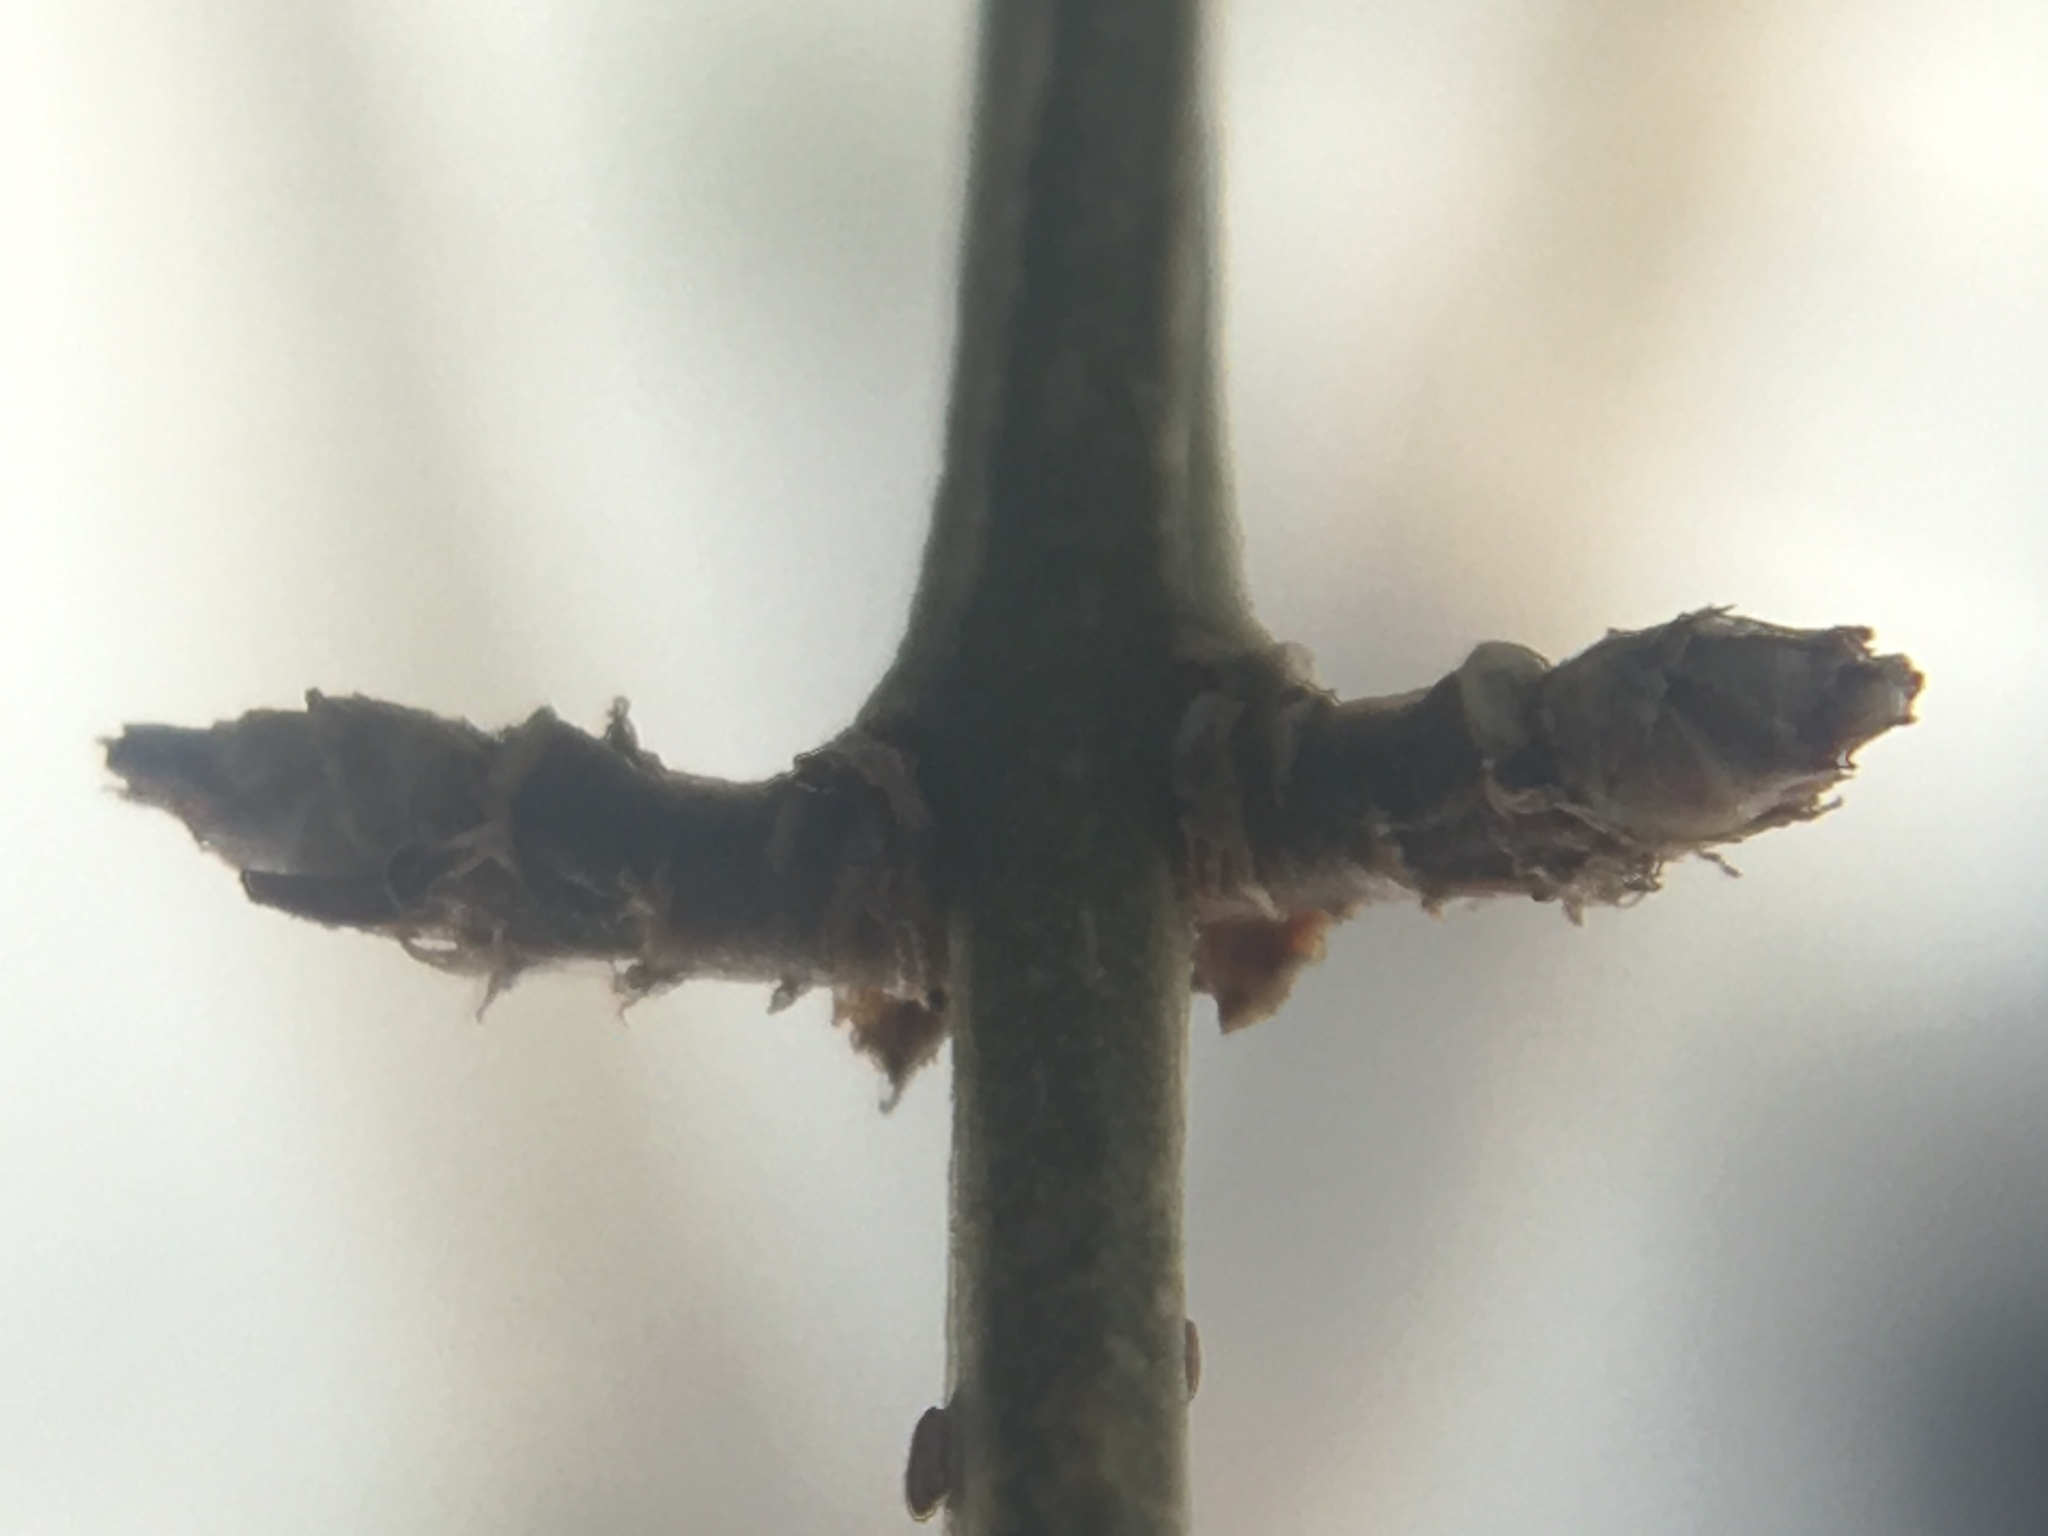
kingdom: Plantae
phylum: Tracheophyta
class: Magnoliopsida
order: Celastrales
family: Celastraceae
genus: Euonymus
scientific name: Euonymus alatus
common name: Winged euonymus
